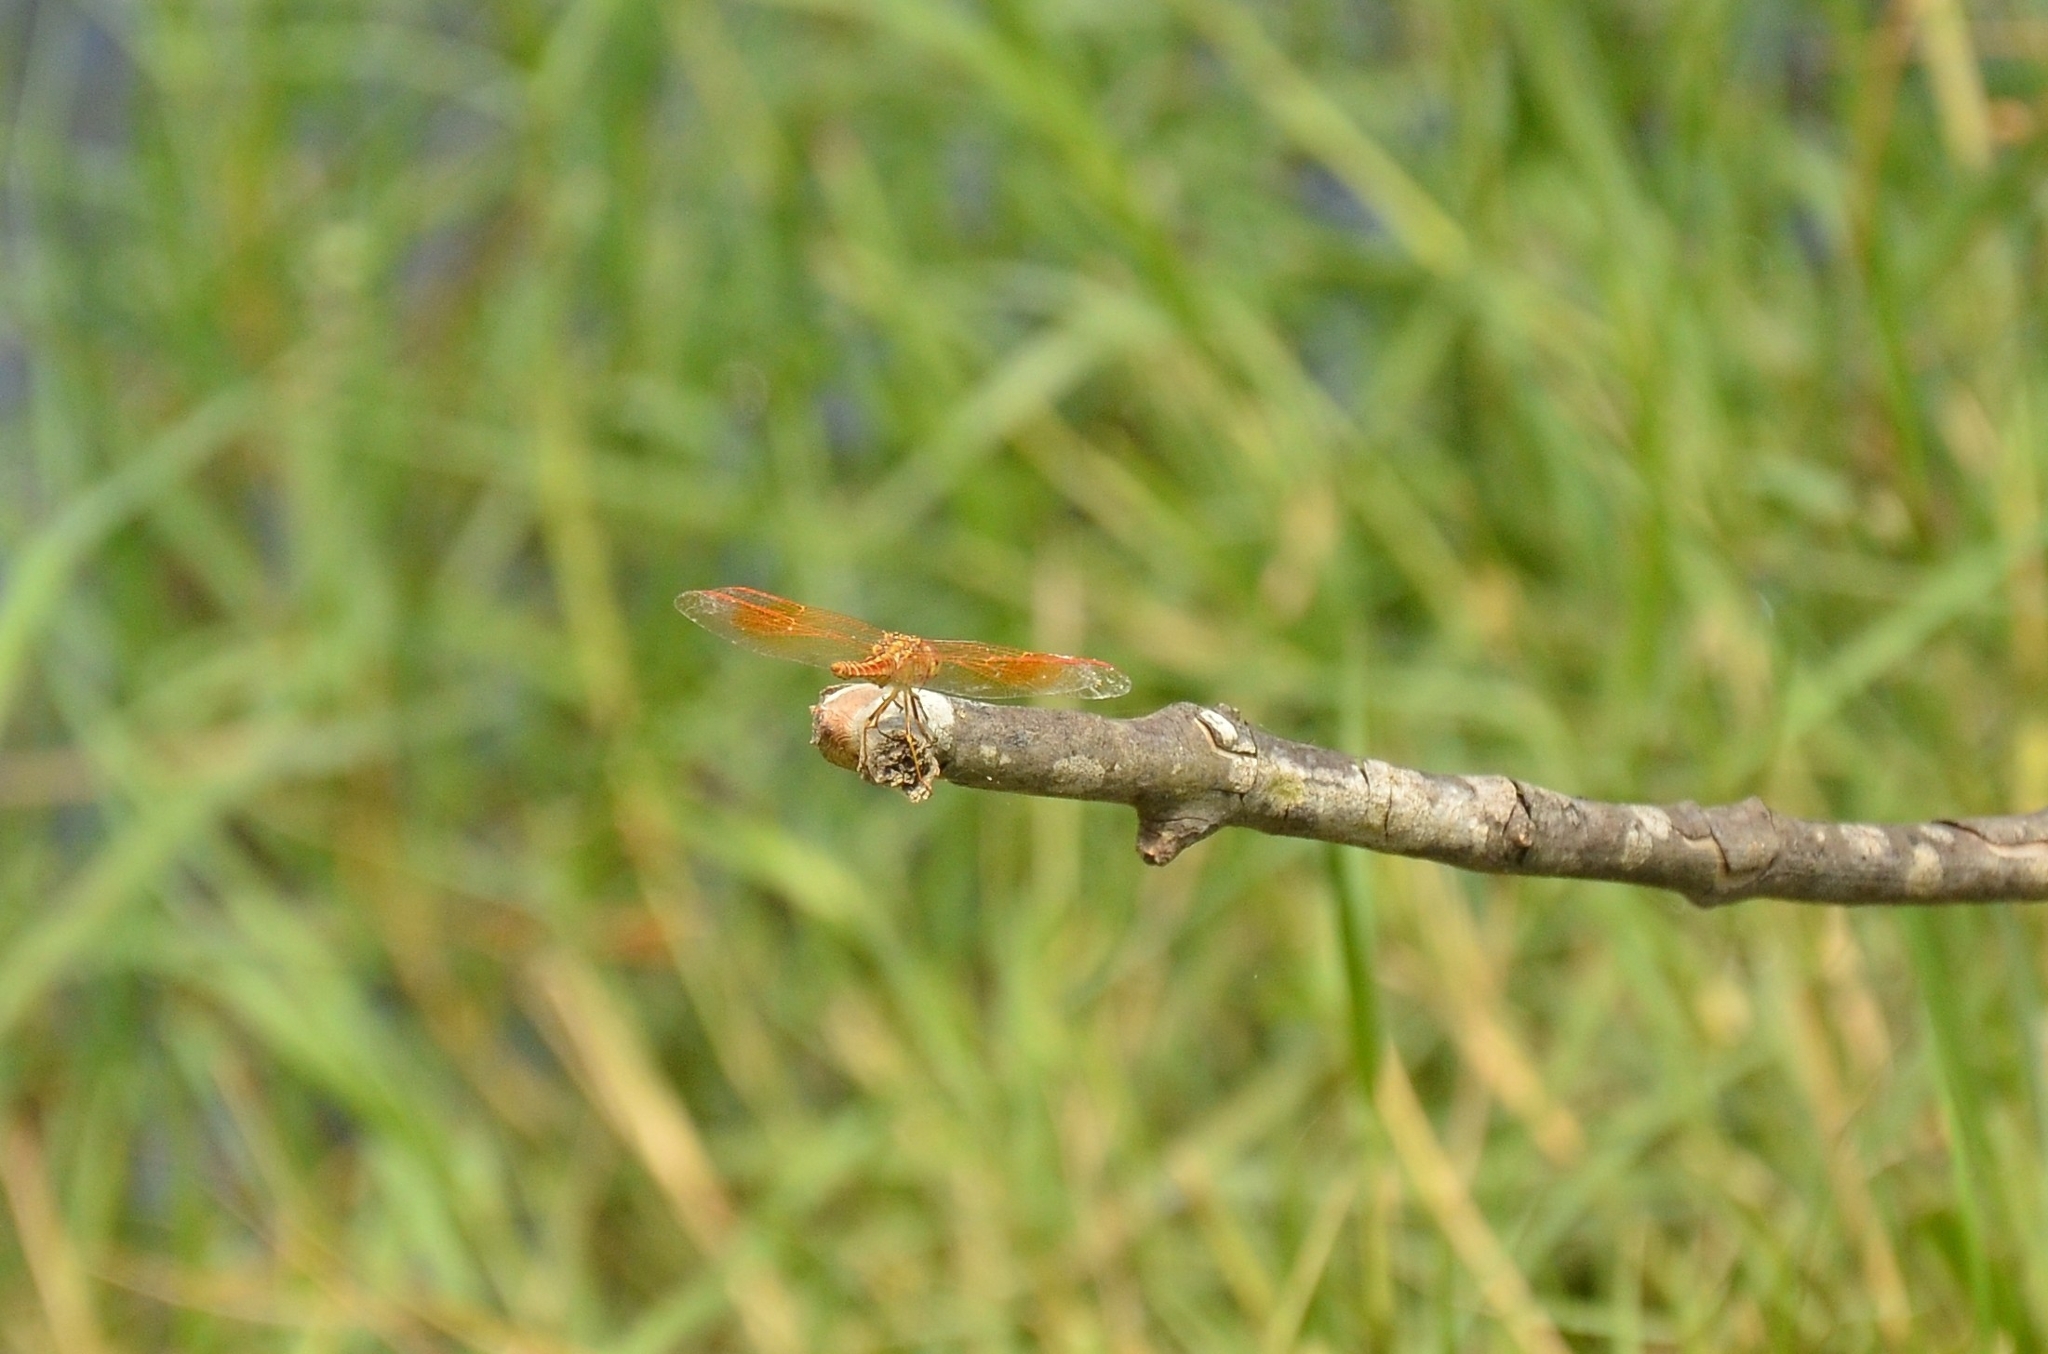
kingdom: Animalia
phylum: Arthropoda
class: Insecta
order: Odonata
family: Libellulidae
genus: Brachythemis
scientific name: Brachythemis contaminata
